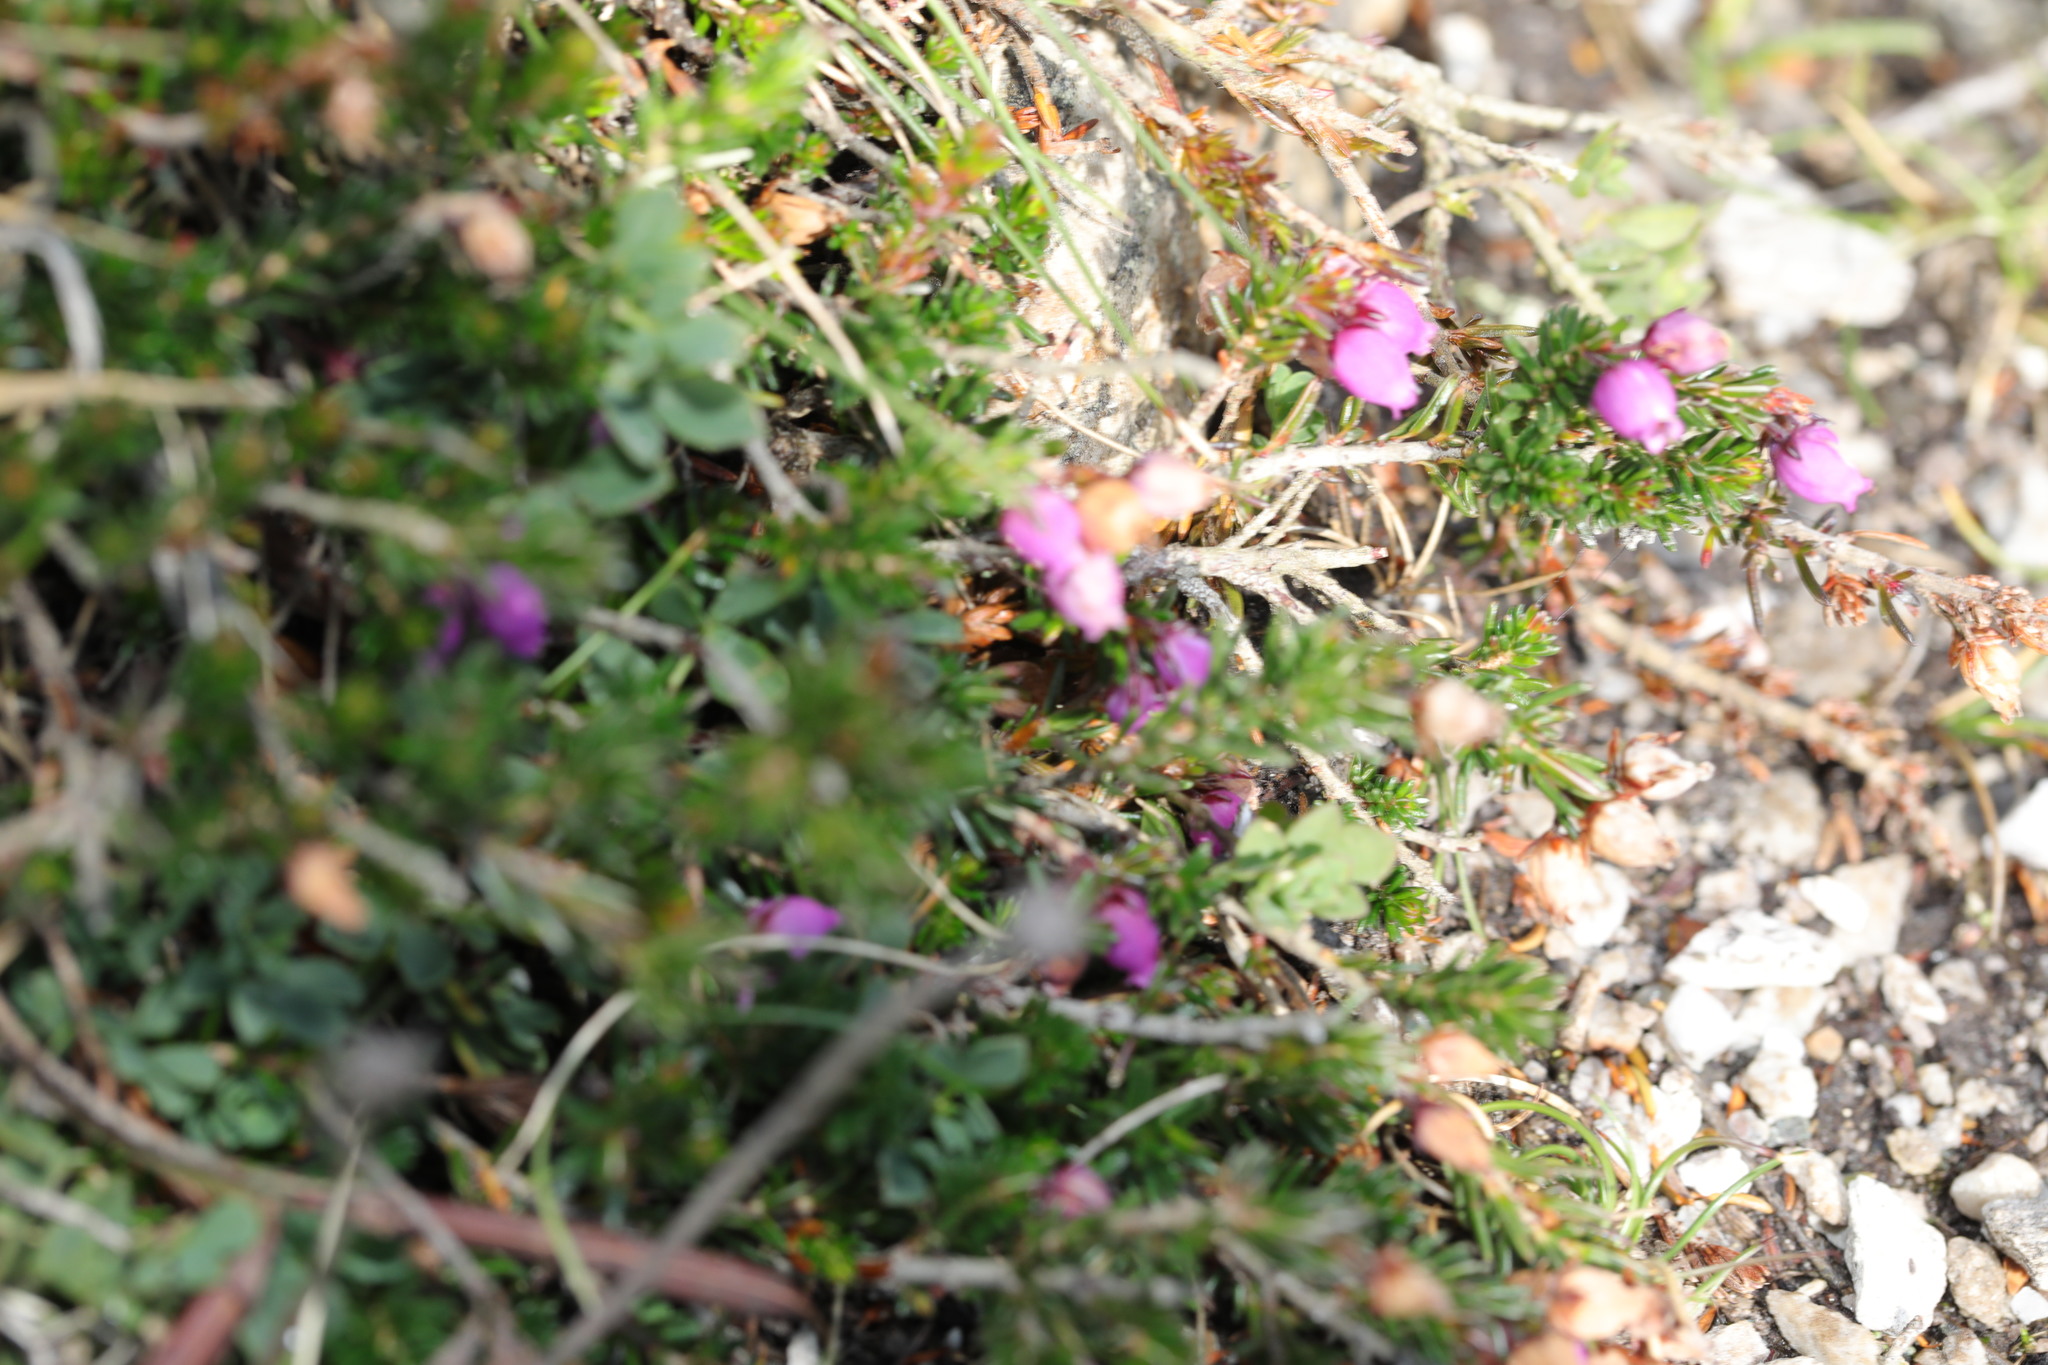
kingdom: Plantae
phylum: Tracheophyta
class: Magnoliopsida
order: Ericales
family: Ericaceae
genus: Erica
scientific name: Erica cinerea
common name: Bell heather
